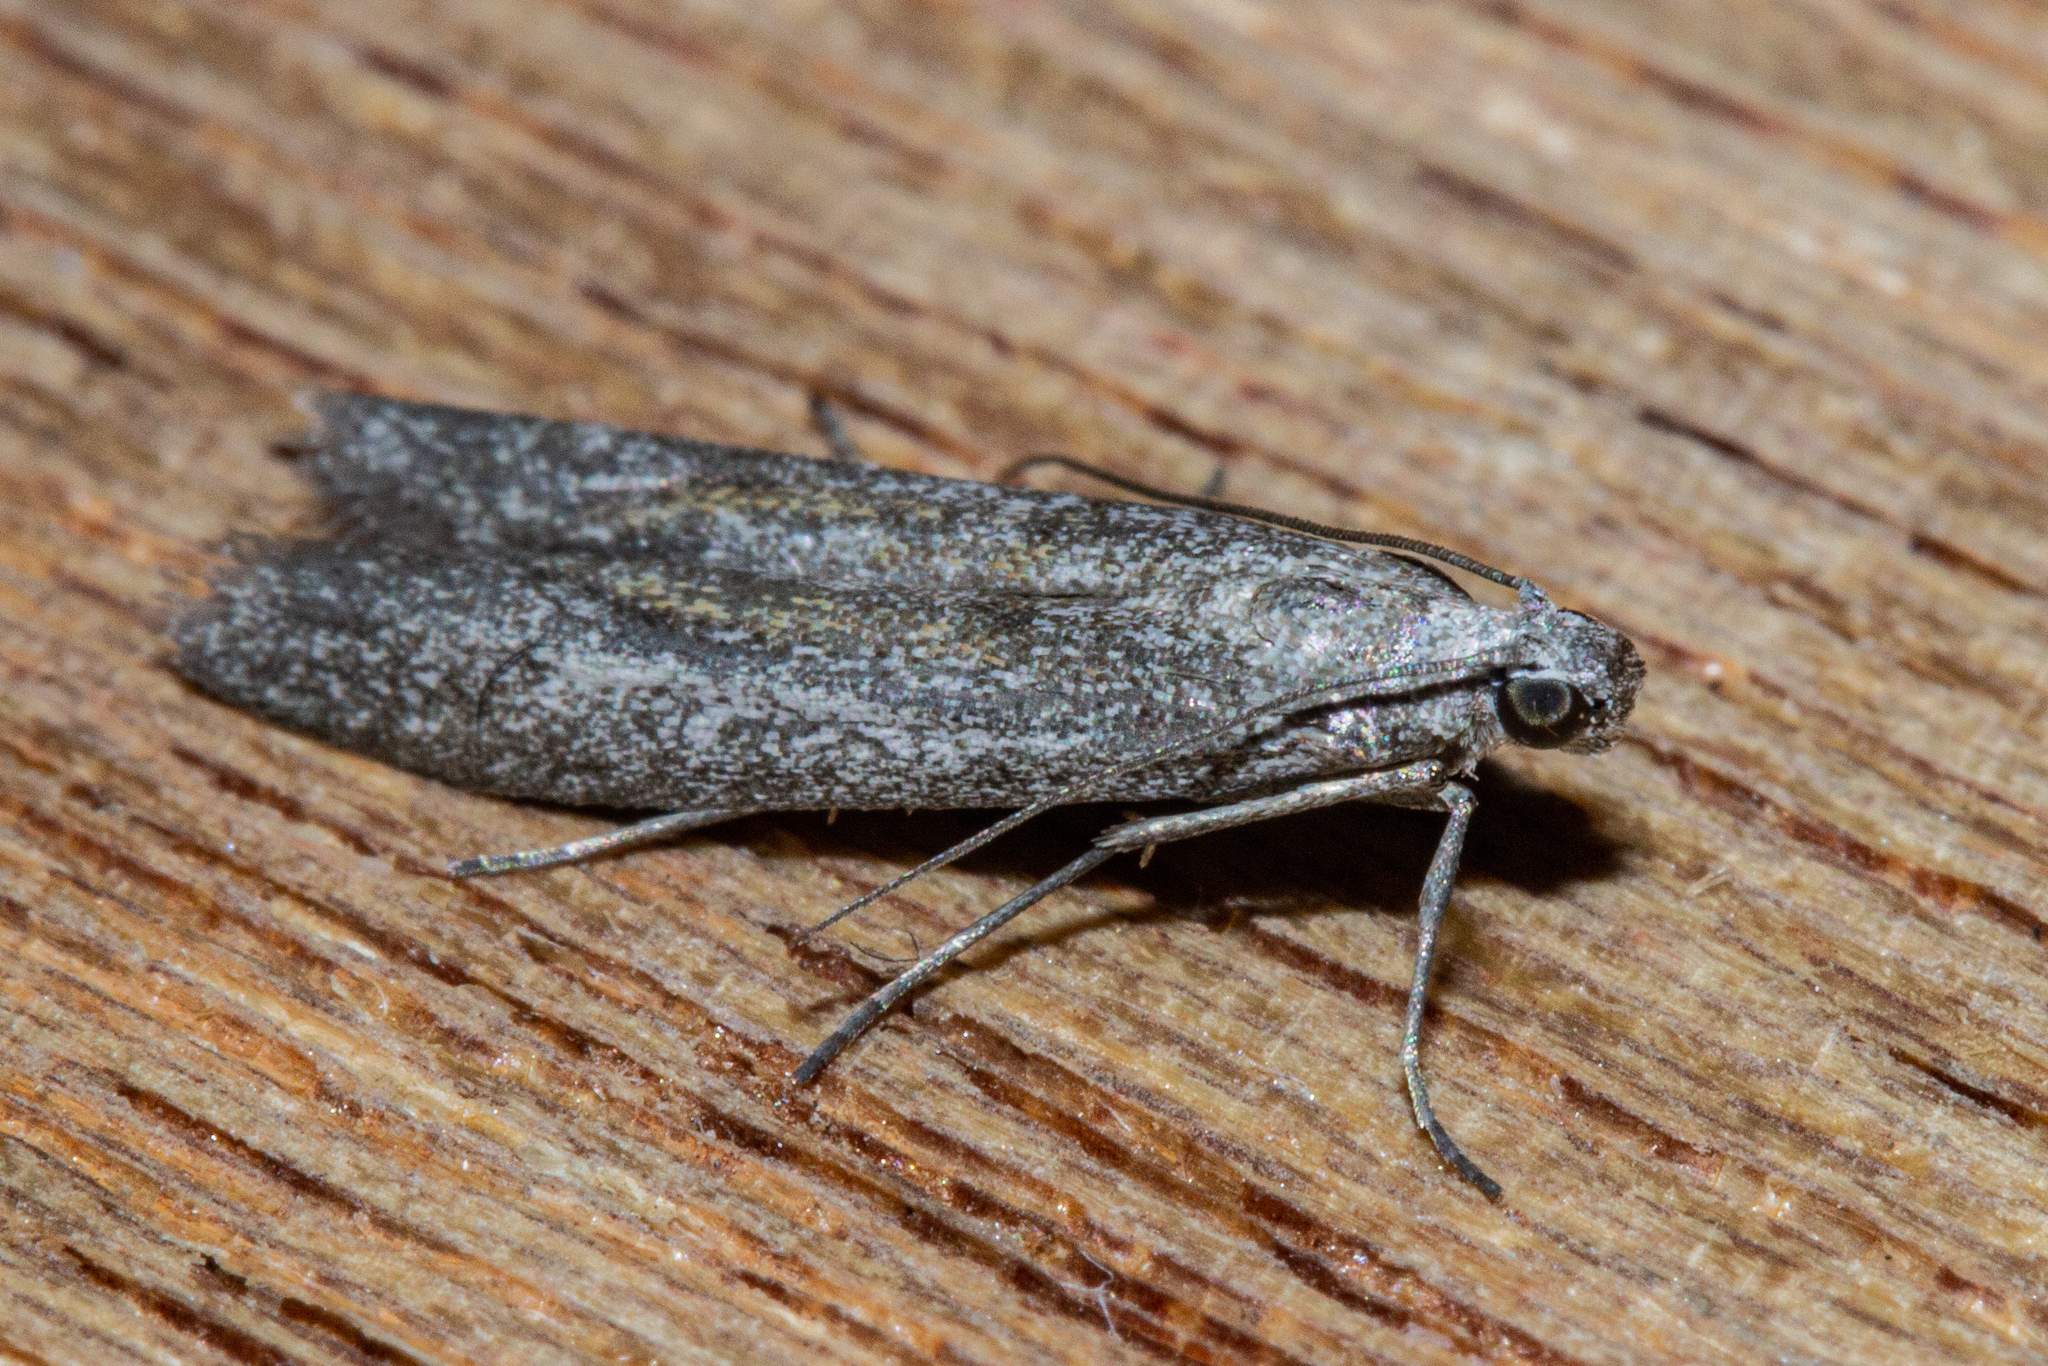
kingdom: Animalia
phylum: Arthropoda
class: Insecta
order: Lepidoptera
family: Pyralidae
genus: Homoeosoma
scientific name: Homoeosoma anaspila
